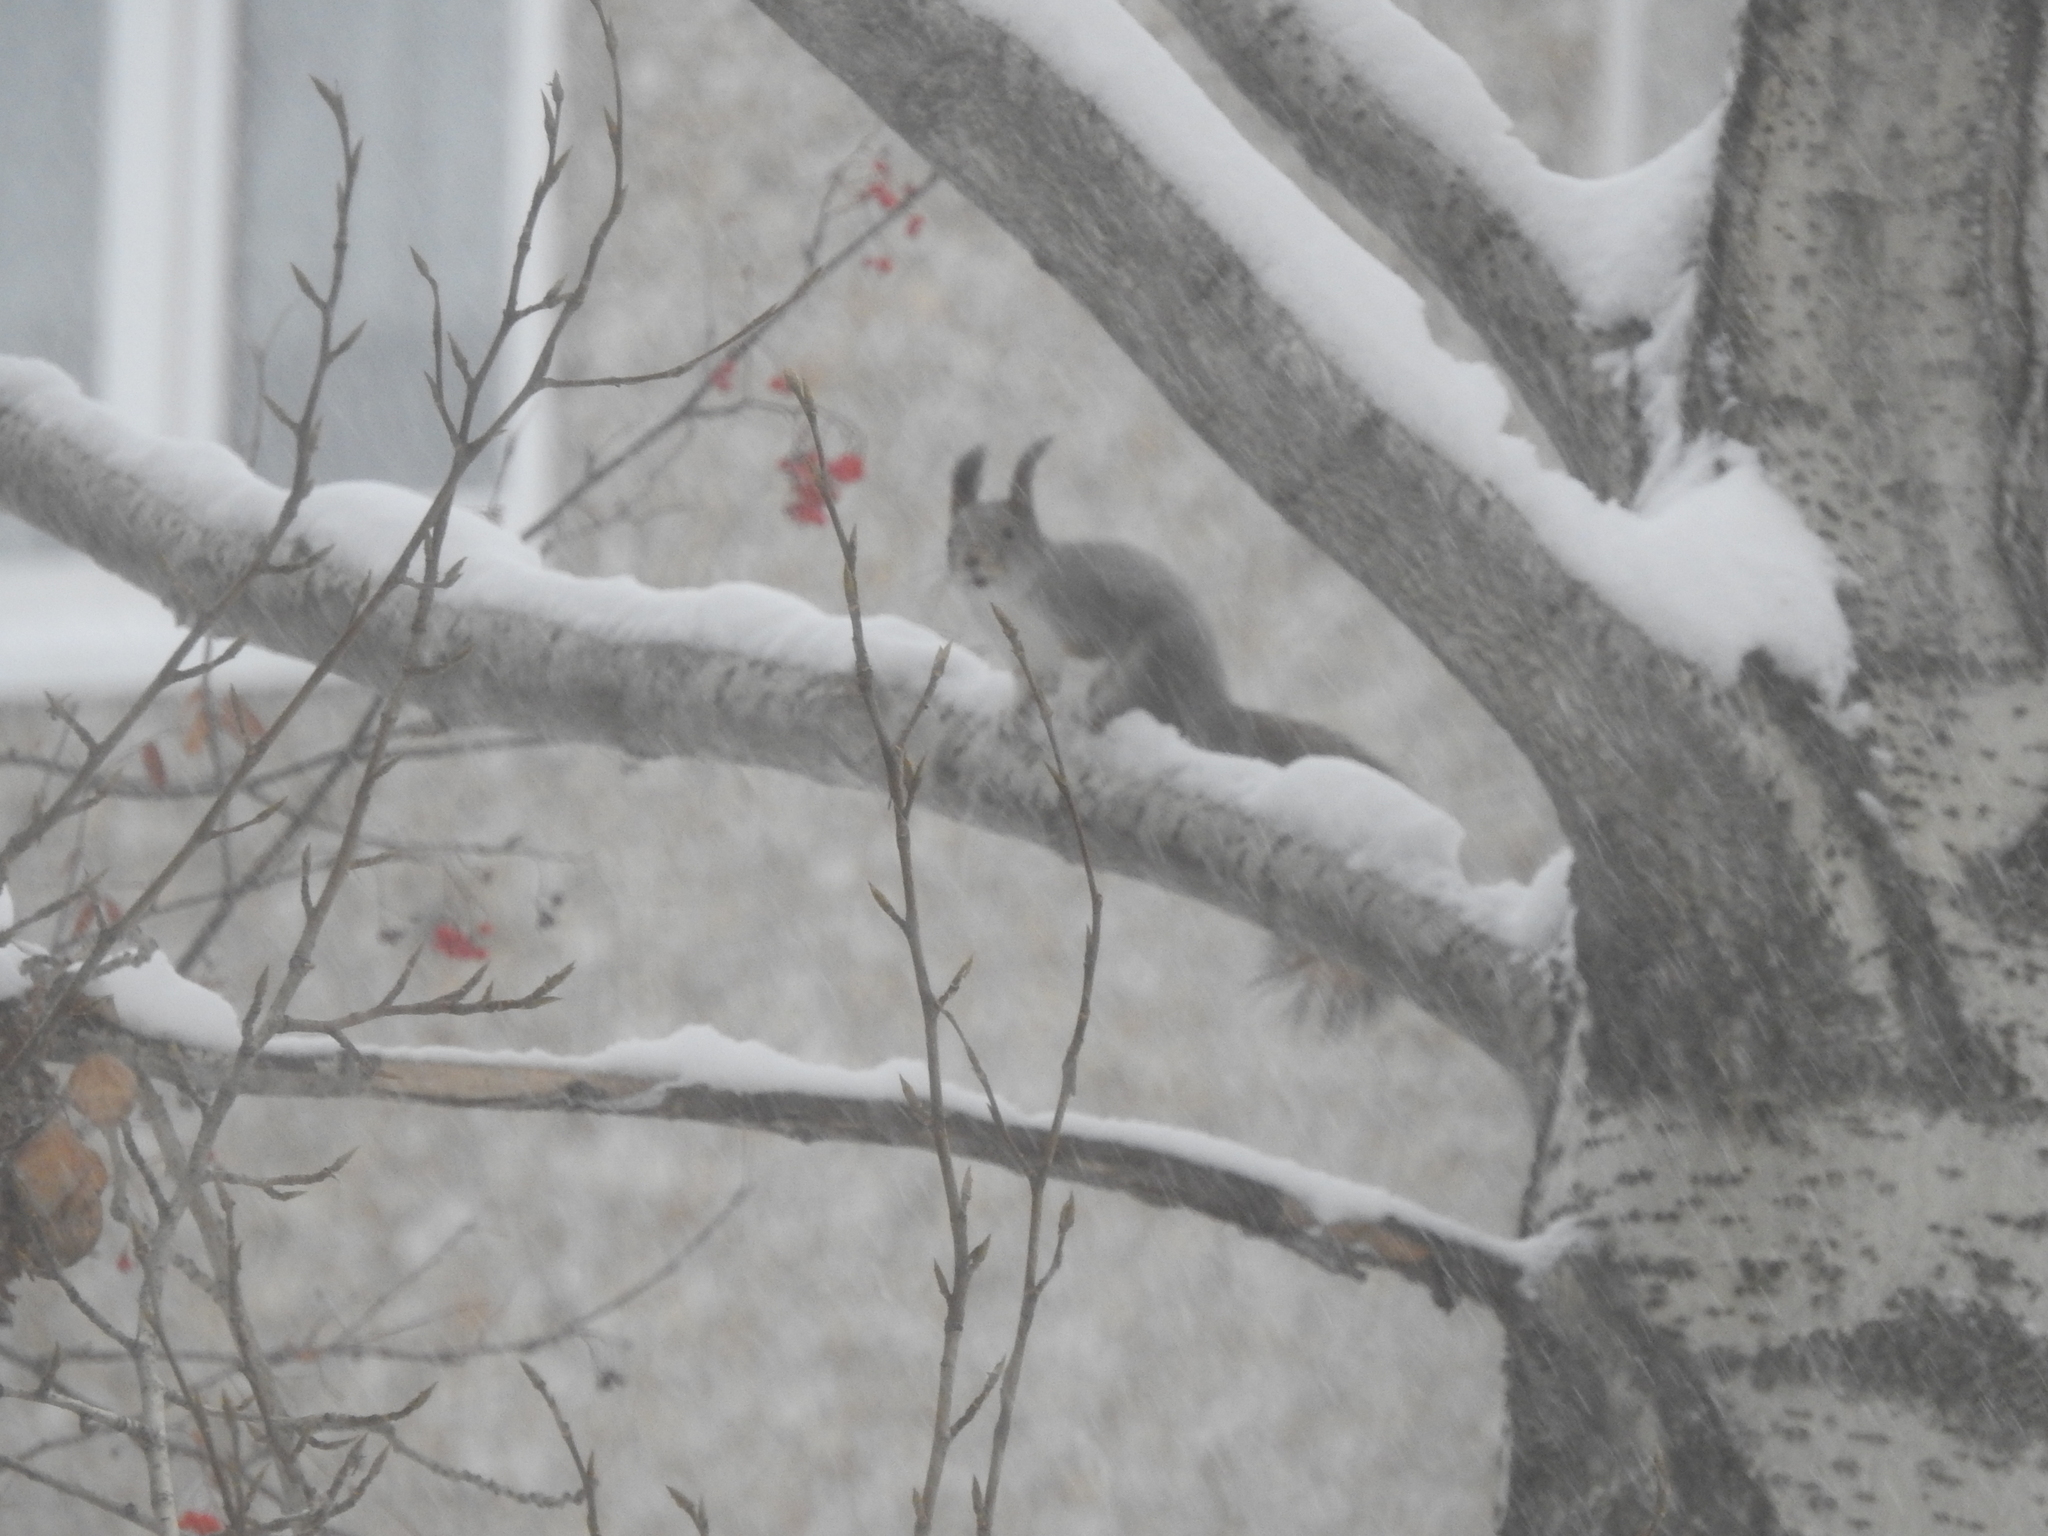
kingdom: Animalia
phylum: Chordata
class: Mammalia
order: Rodentia
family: Sciuridae
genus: Sciurus
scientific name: Sciurus vulgaris
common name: Eurasian red squirrel
